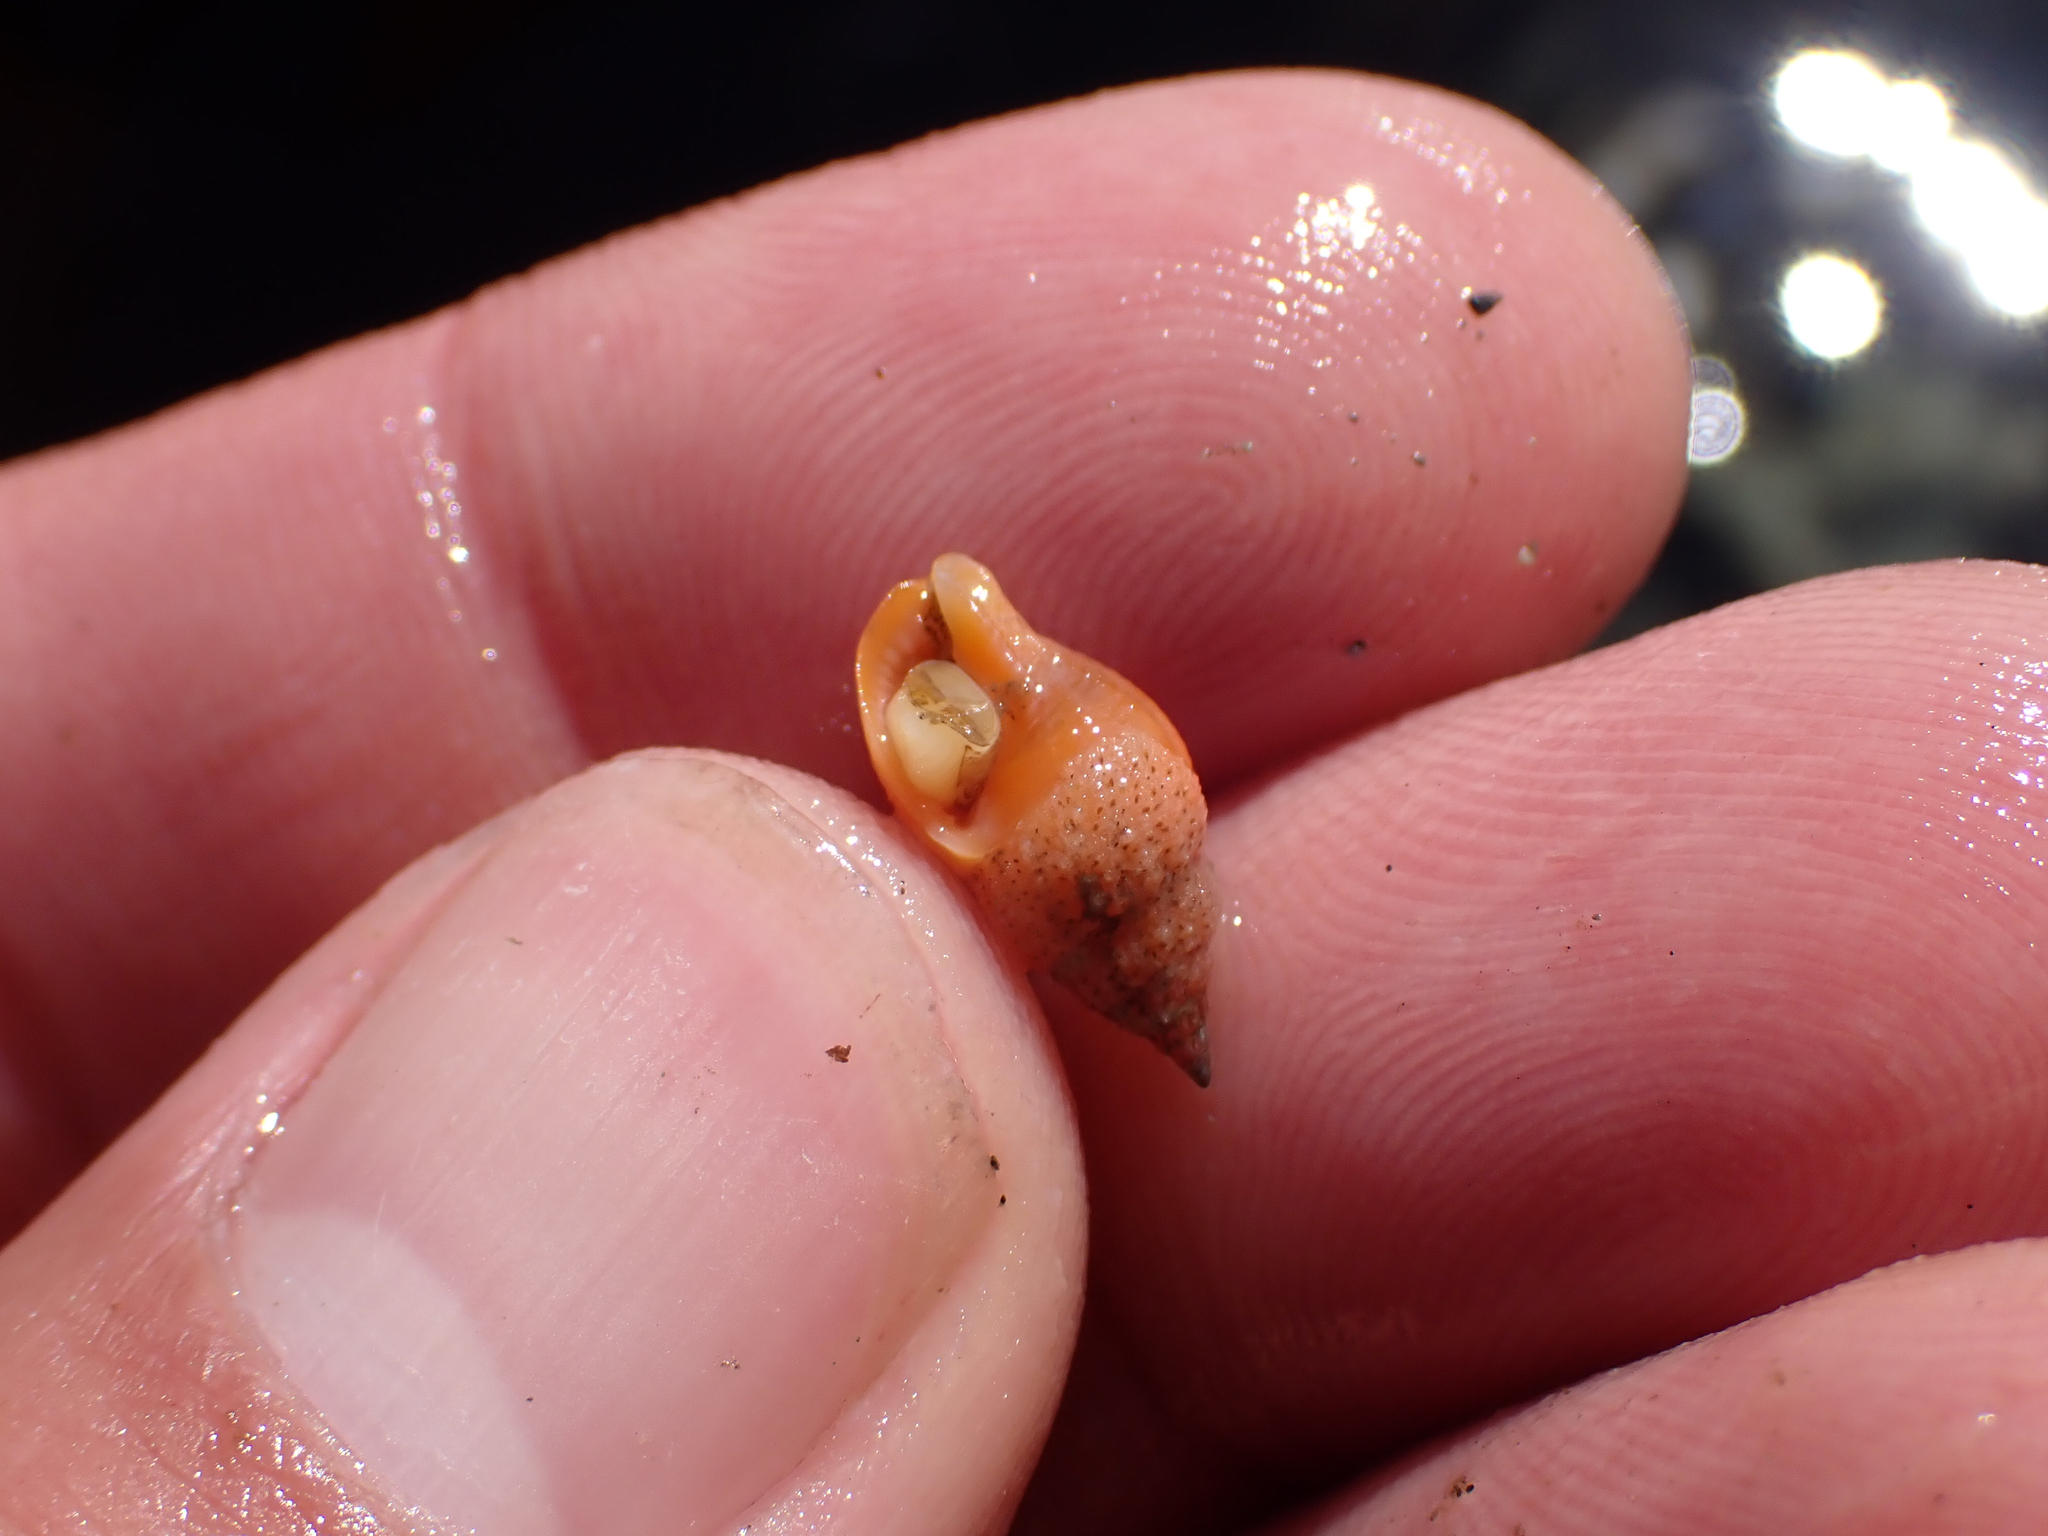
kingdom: Animalia
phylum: Mollusca
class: Gastropoda
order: Neogastropoda
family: Columbellidae
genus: Amphissa
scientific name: Amphissa versicolor
